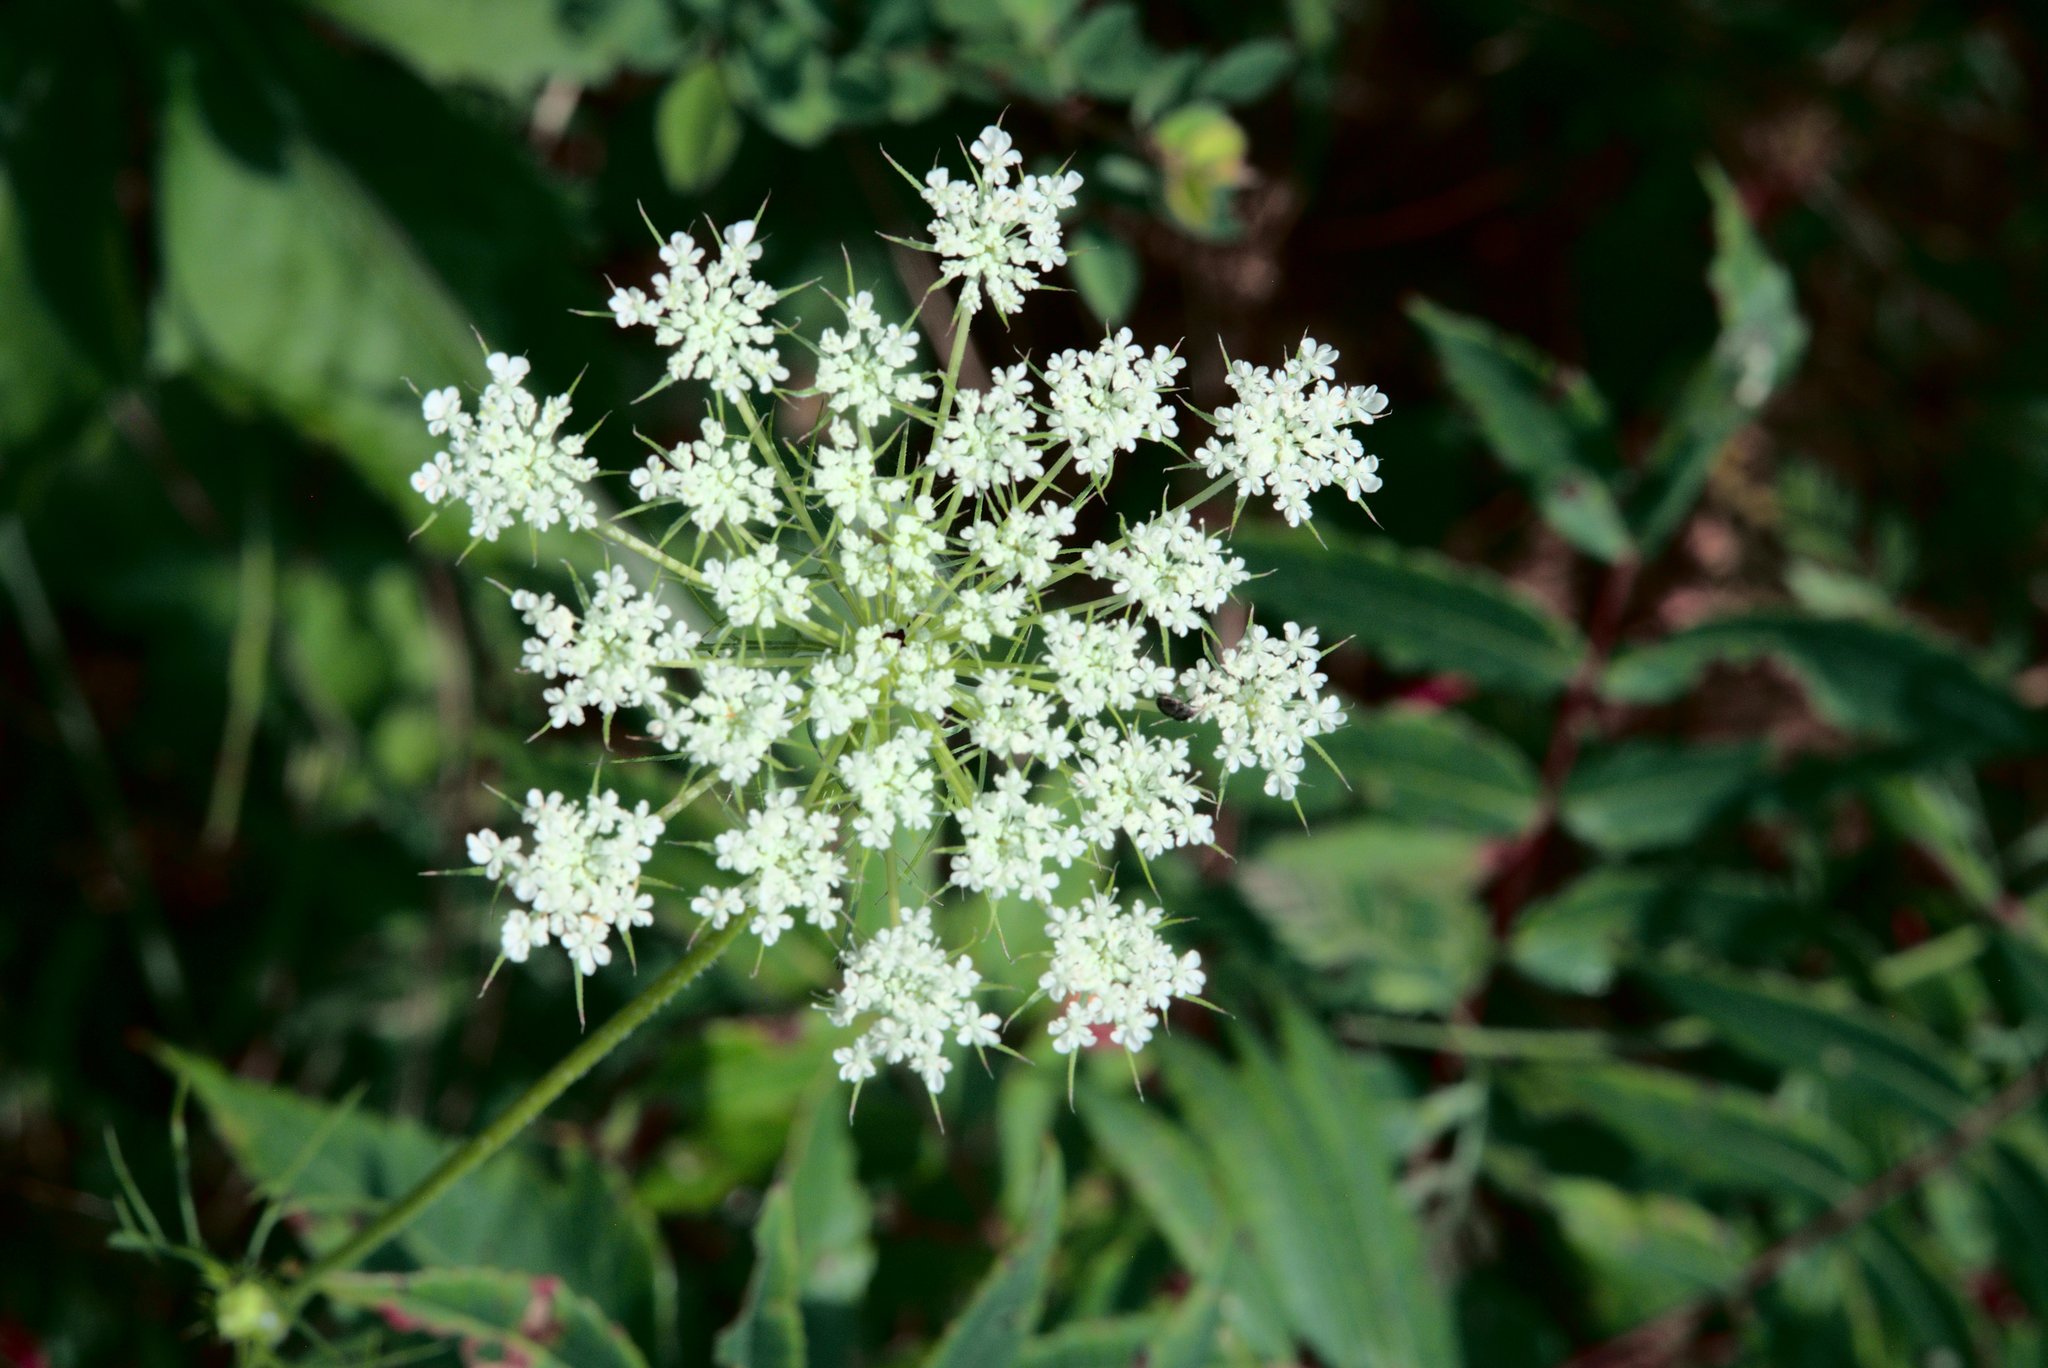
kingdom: Plantae
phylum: Tracheophyta
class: Magnoliopsida
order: Apiales
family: Apiaceae
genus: Daucus
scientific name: Daucus carota
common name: Wild carrot
